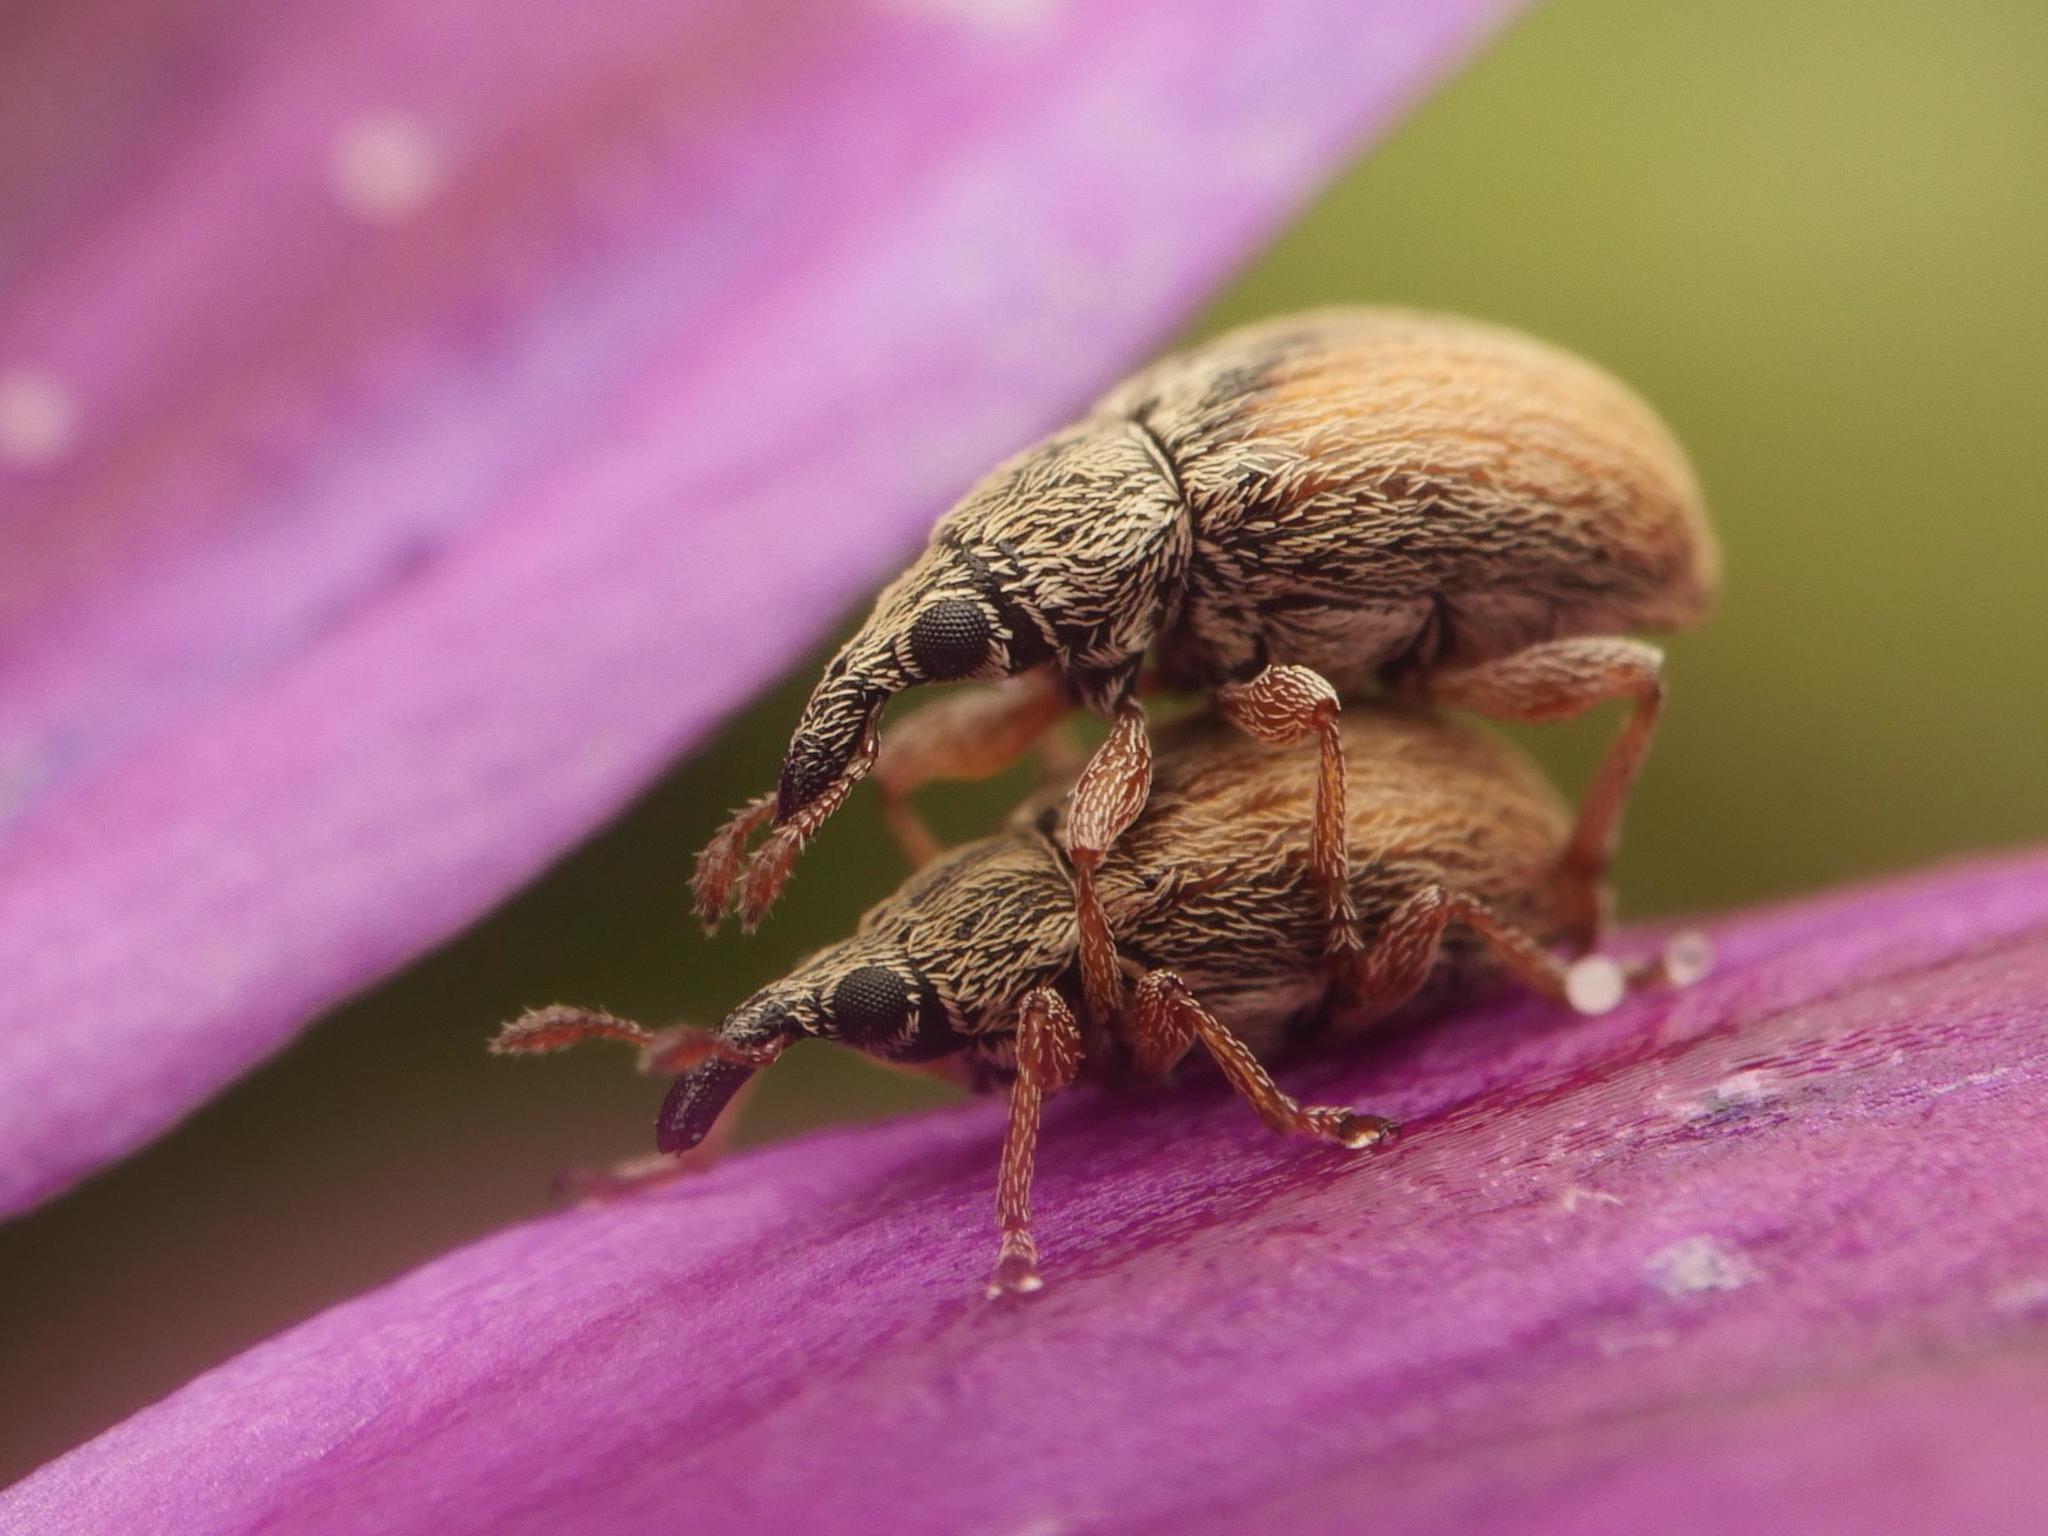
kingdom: Animalia
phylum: Arthropoda
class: Insecta
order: Coleoptera
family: Apionidae
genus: Malvapion
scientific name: Malvapion malvae
